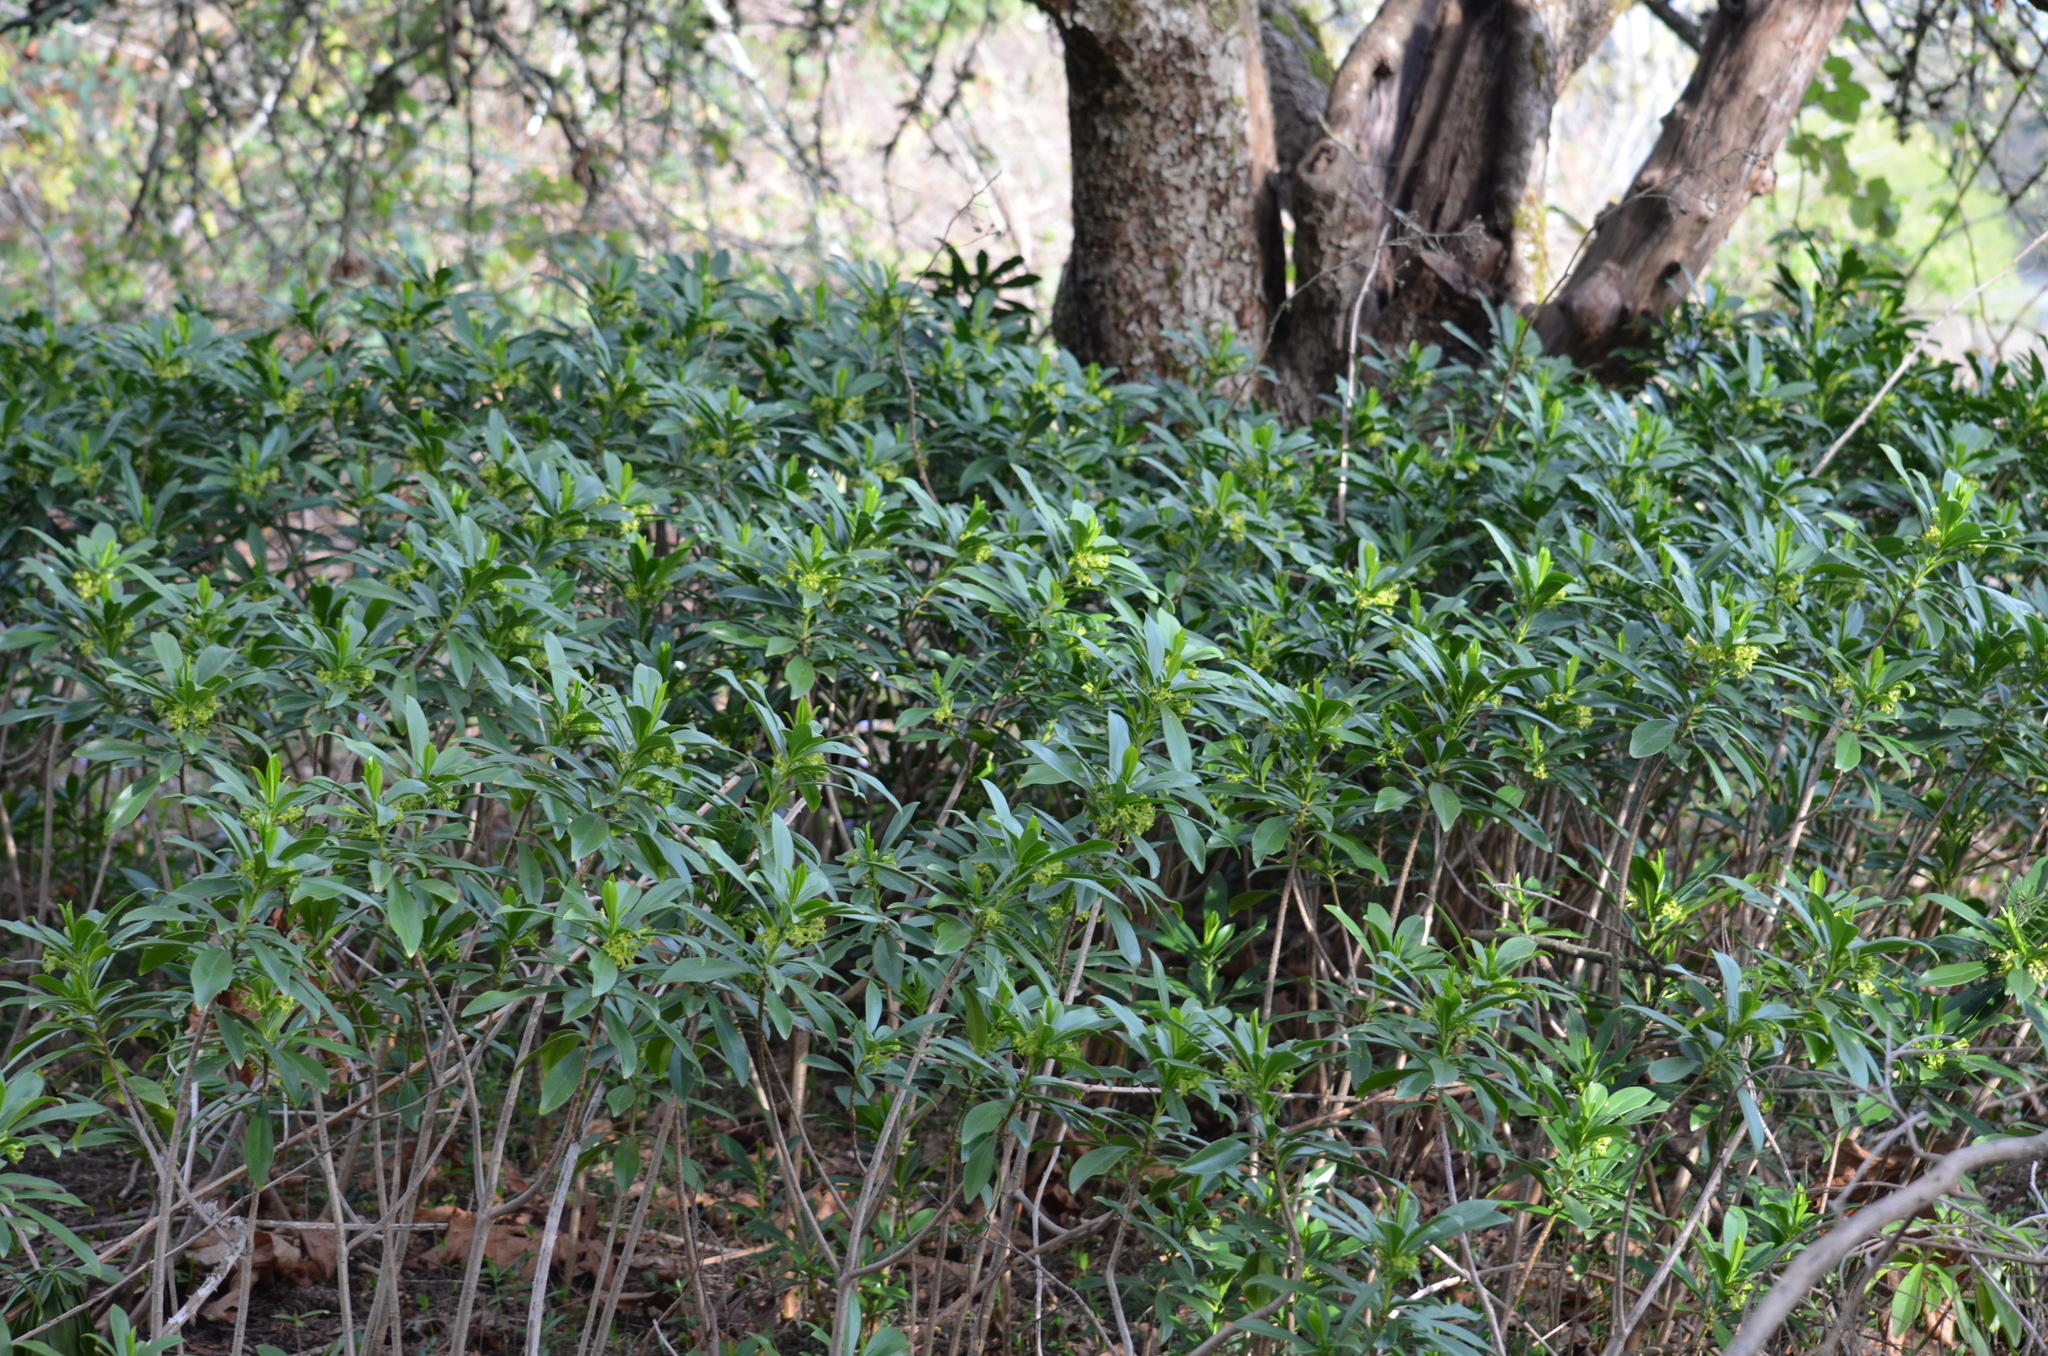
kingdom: Plantae
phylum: Tracheophyta
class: Magnoliopsida
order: Malvales
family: Thymelaeaceae
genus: Daphne
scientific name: Daphne laureola
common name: Spurge-laurel
